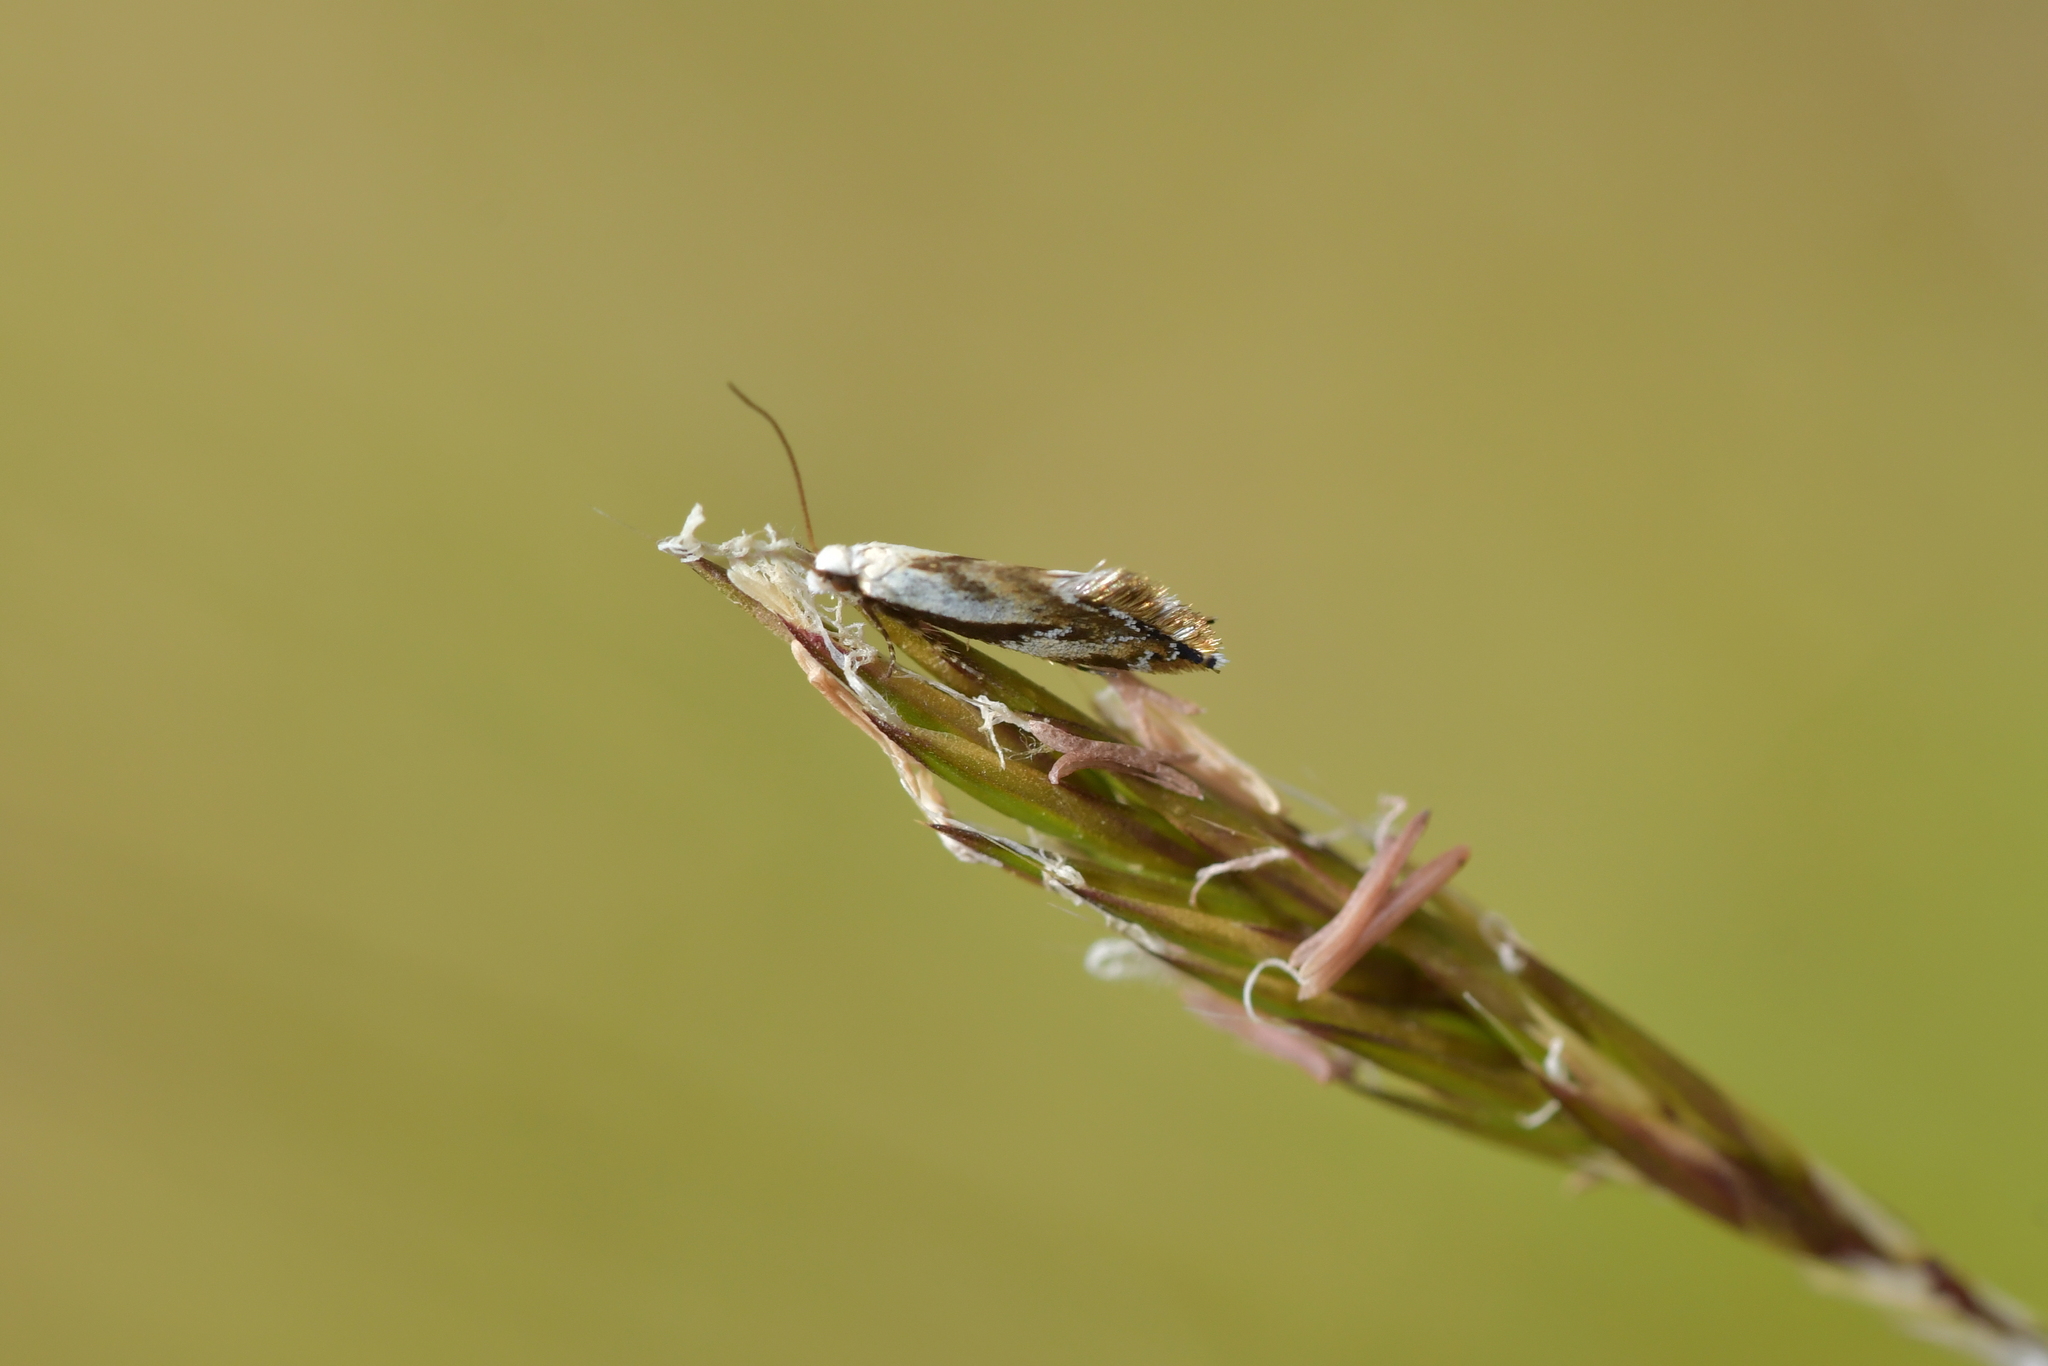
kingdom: Animalia
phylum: Arthropoda
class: Insecta
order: Lepidoptera
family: Mnesarchaeidae
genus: Mnesarchella
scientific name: Mnesarchella acuta
